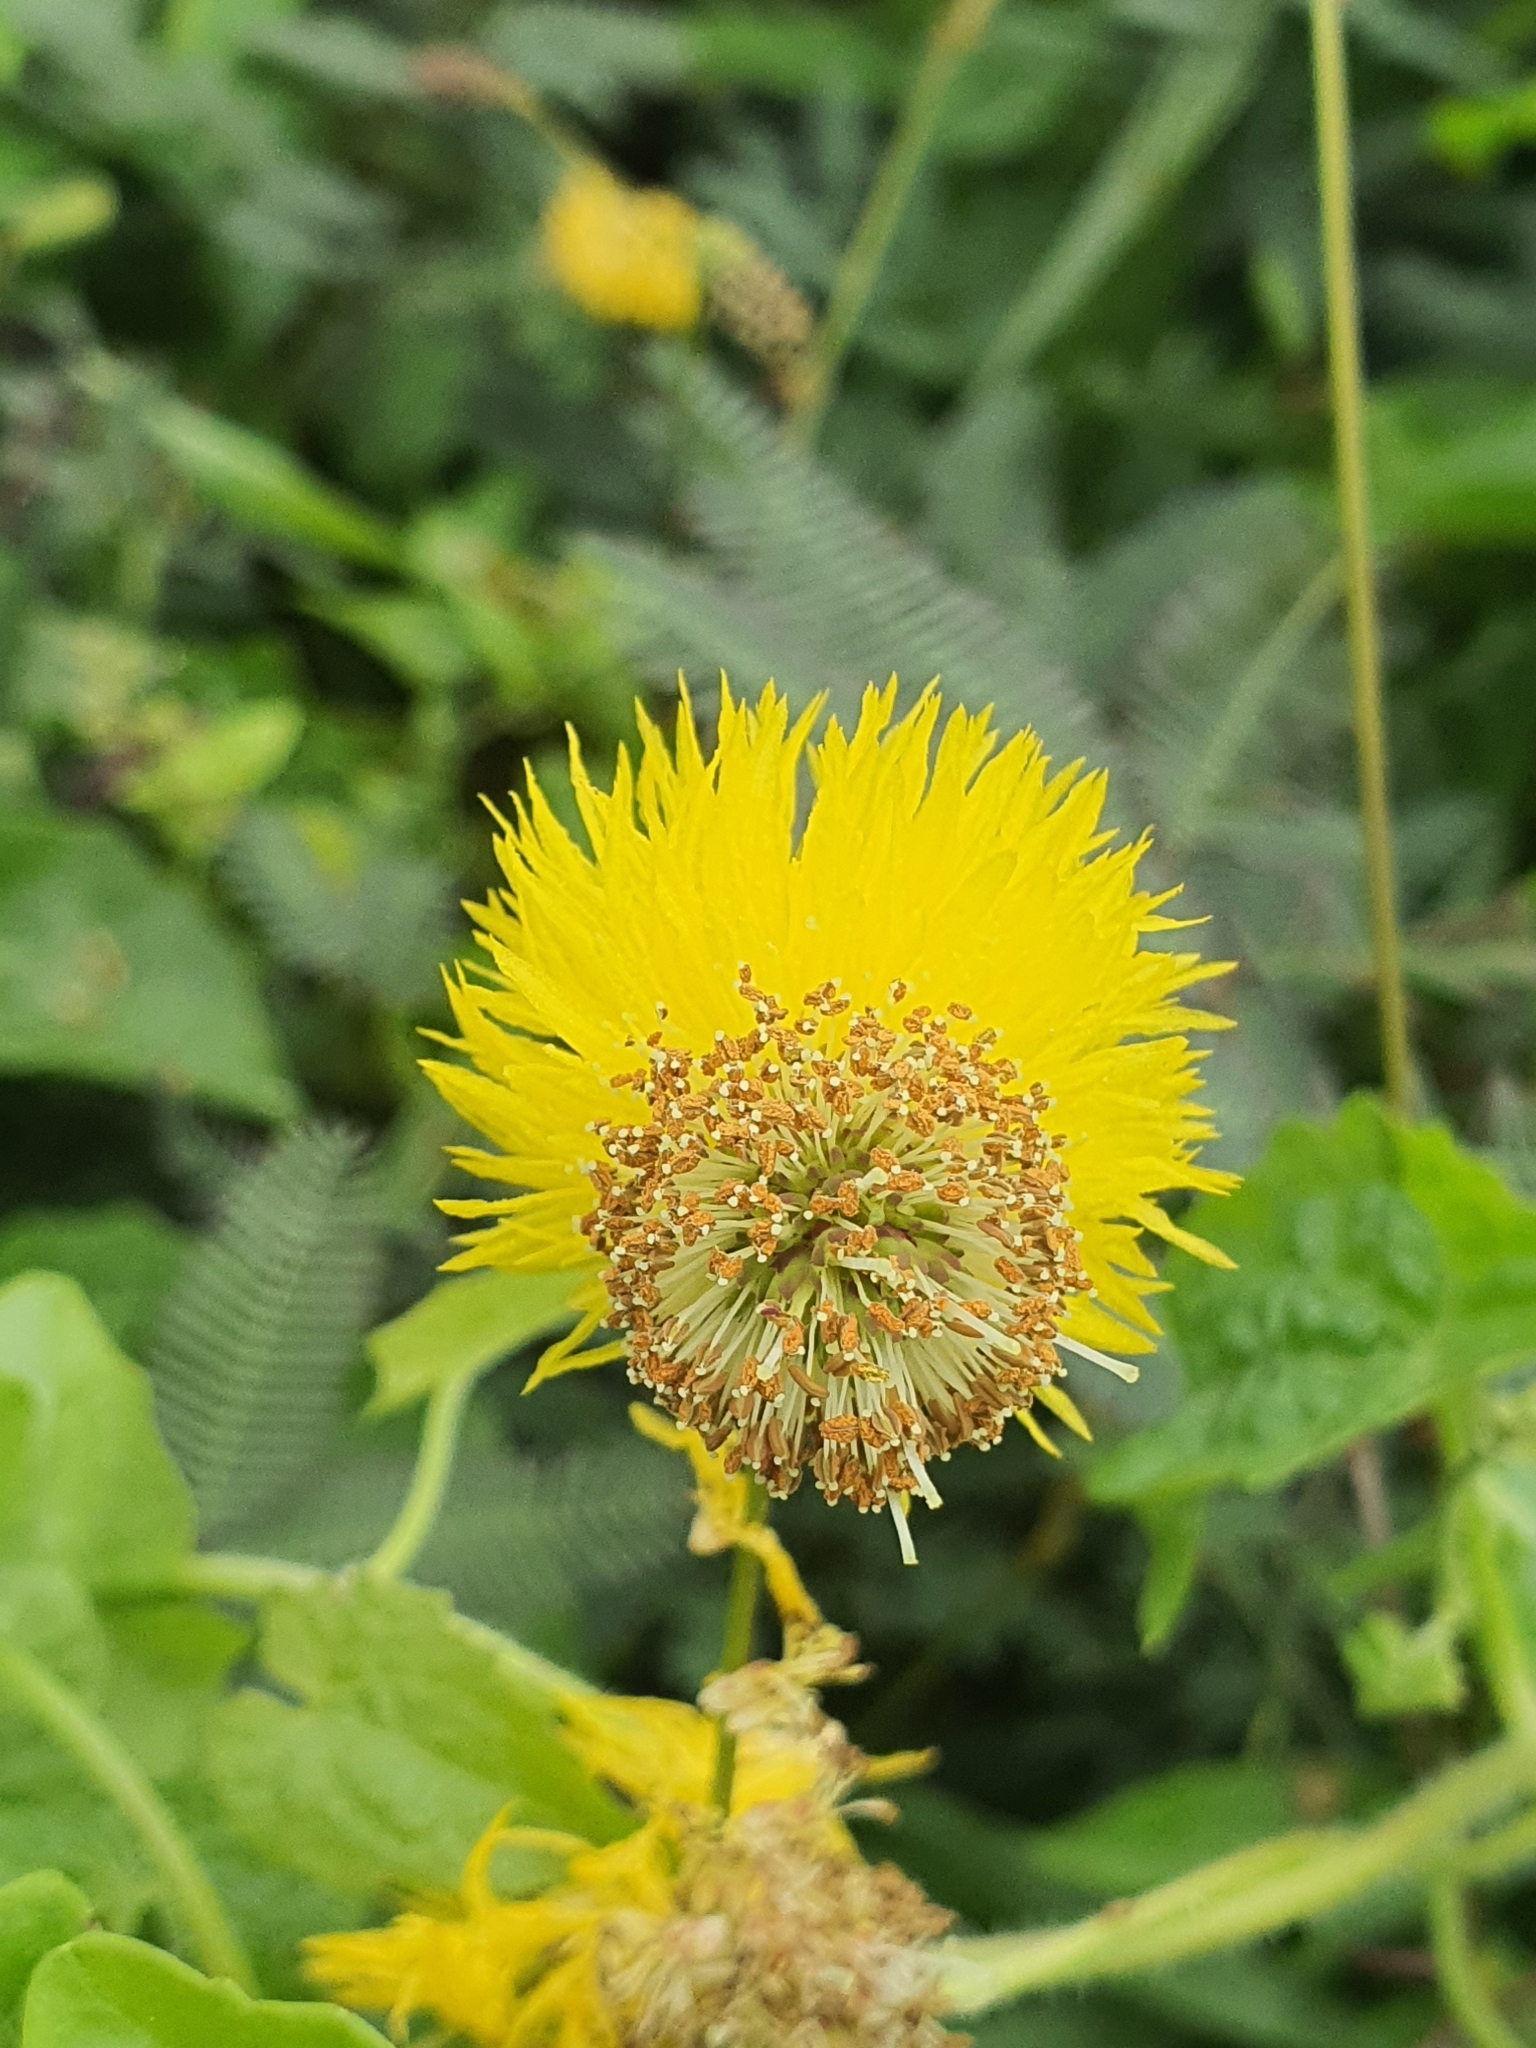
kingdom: Plantae
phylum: Tracheophyta
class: Magnoliopsida
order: Fabales
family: Fabaceae
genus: Neptunia
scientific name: Neptunia plena
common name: Dead and awake
